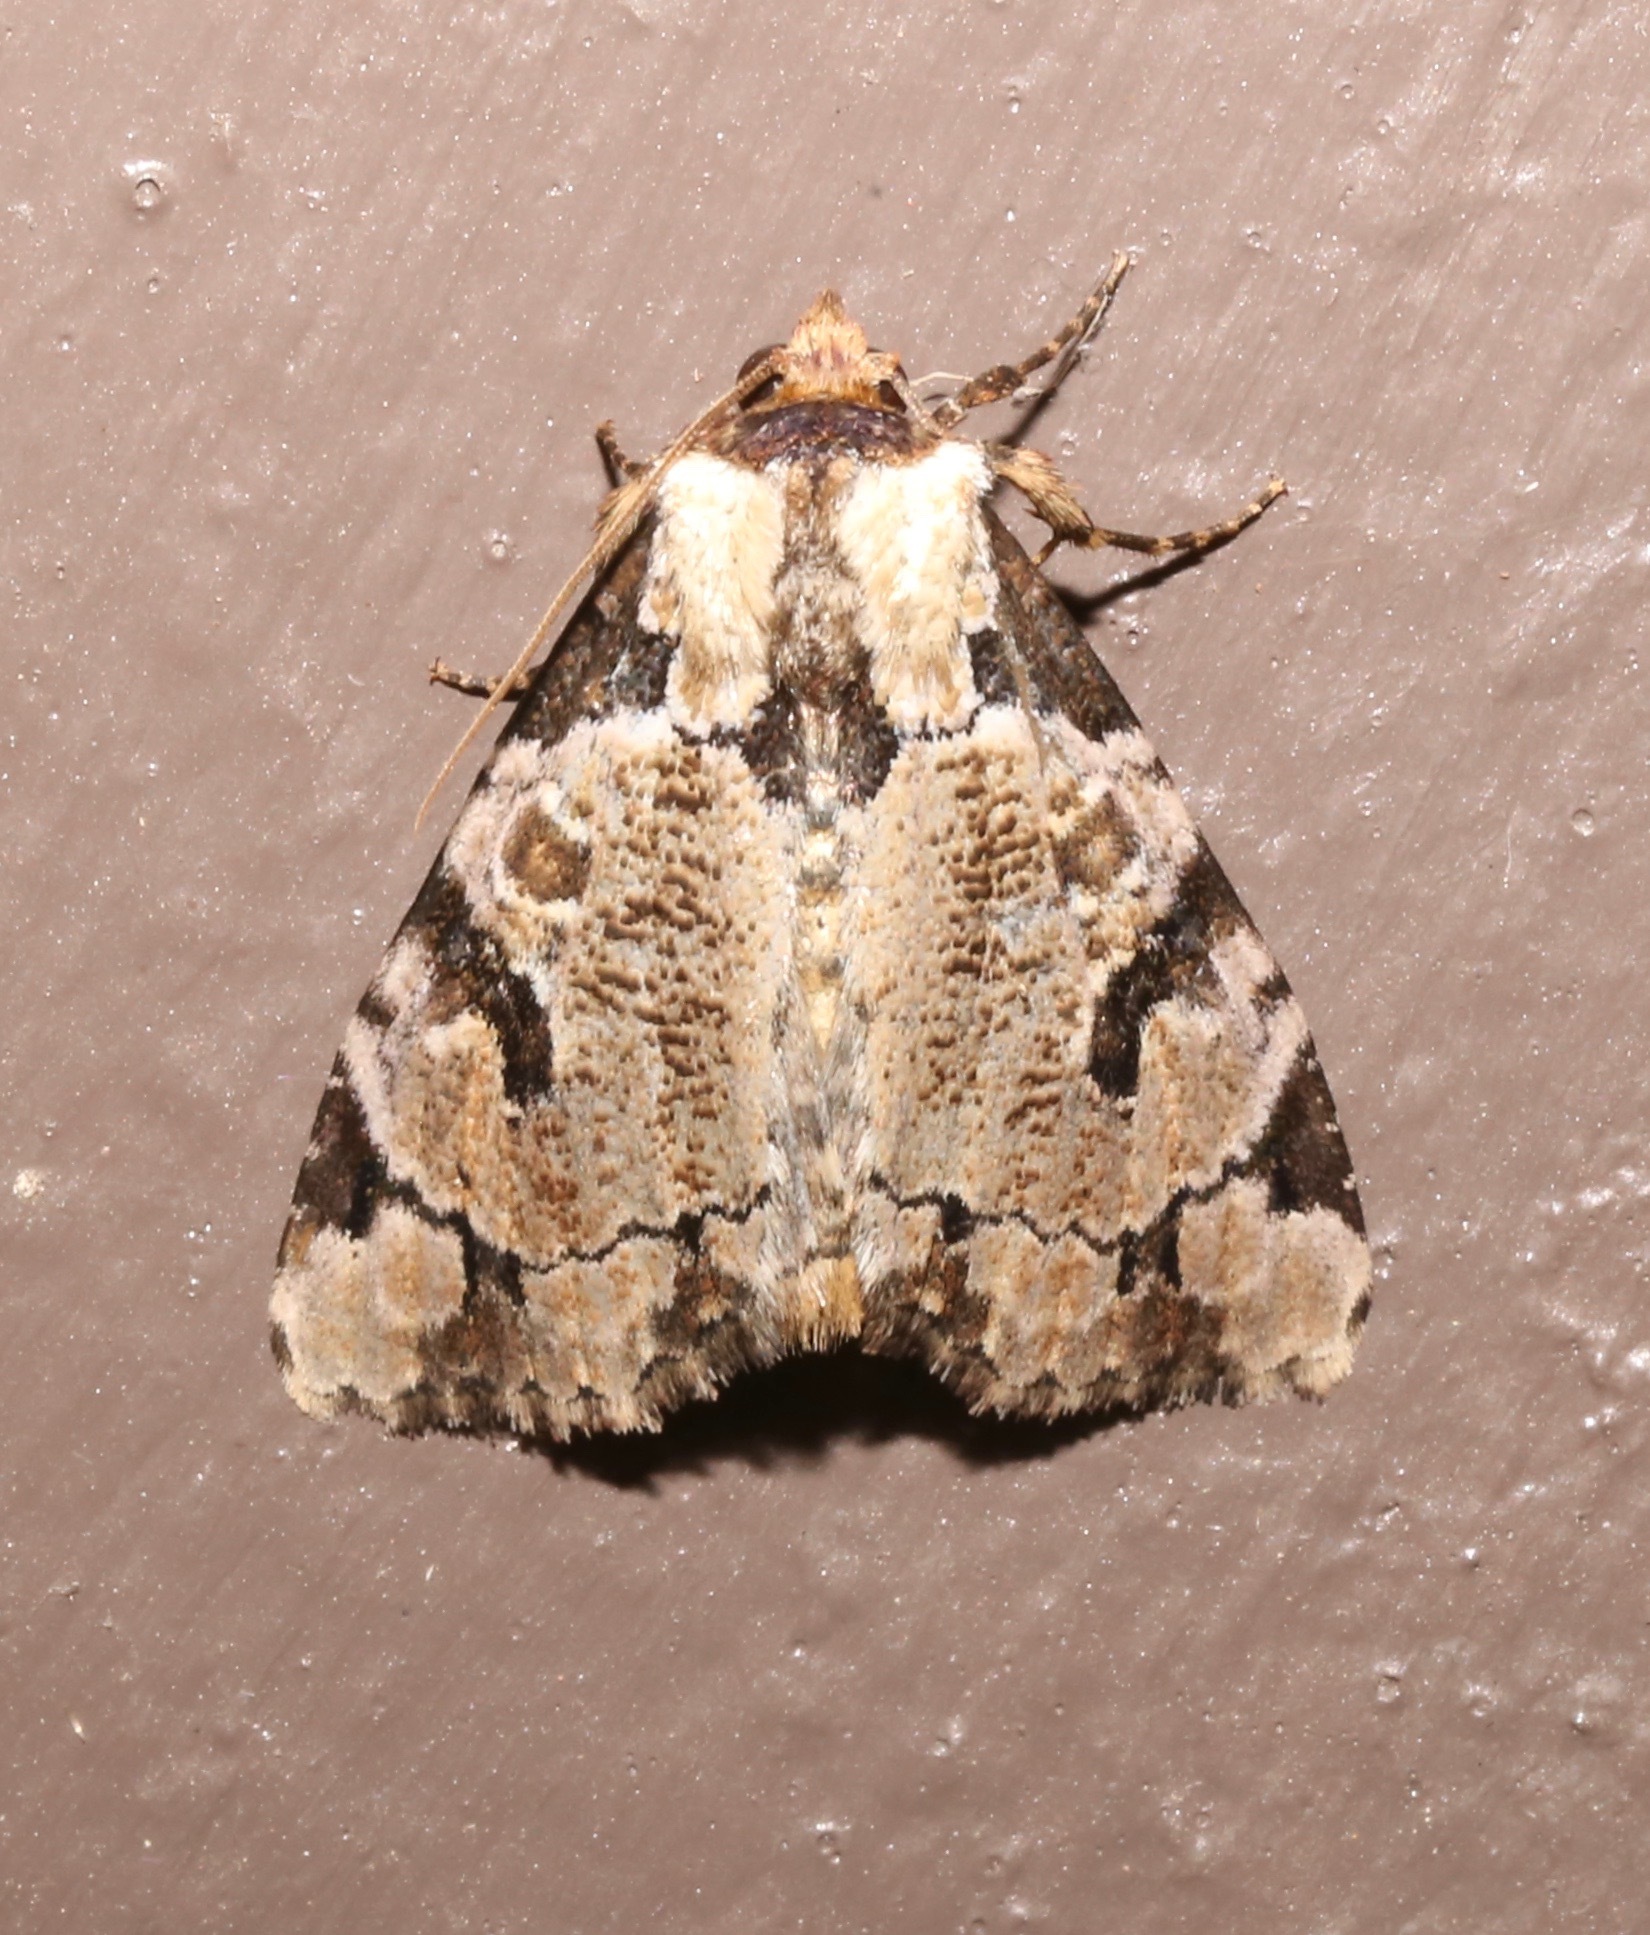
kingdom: Animalia
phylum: Arthropoda
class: Insecta
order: Lepidoptera
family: Noctuidae
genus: Stibaera
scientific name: Stibaera thyatiroides
